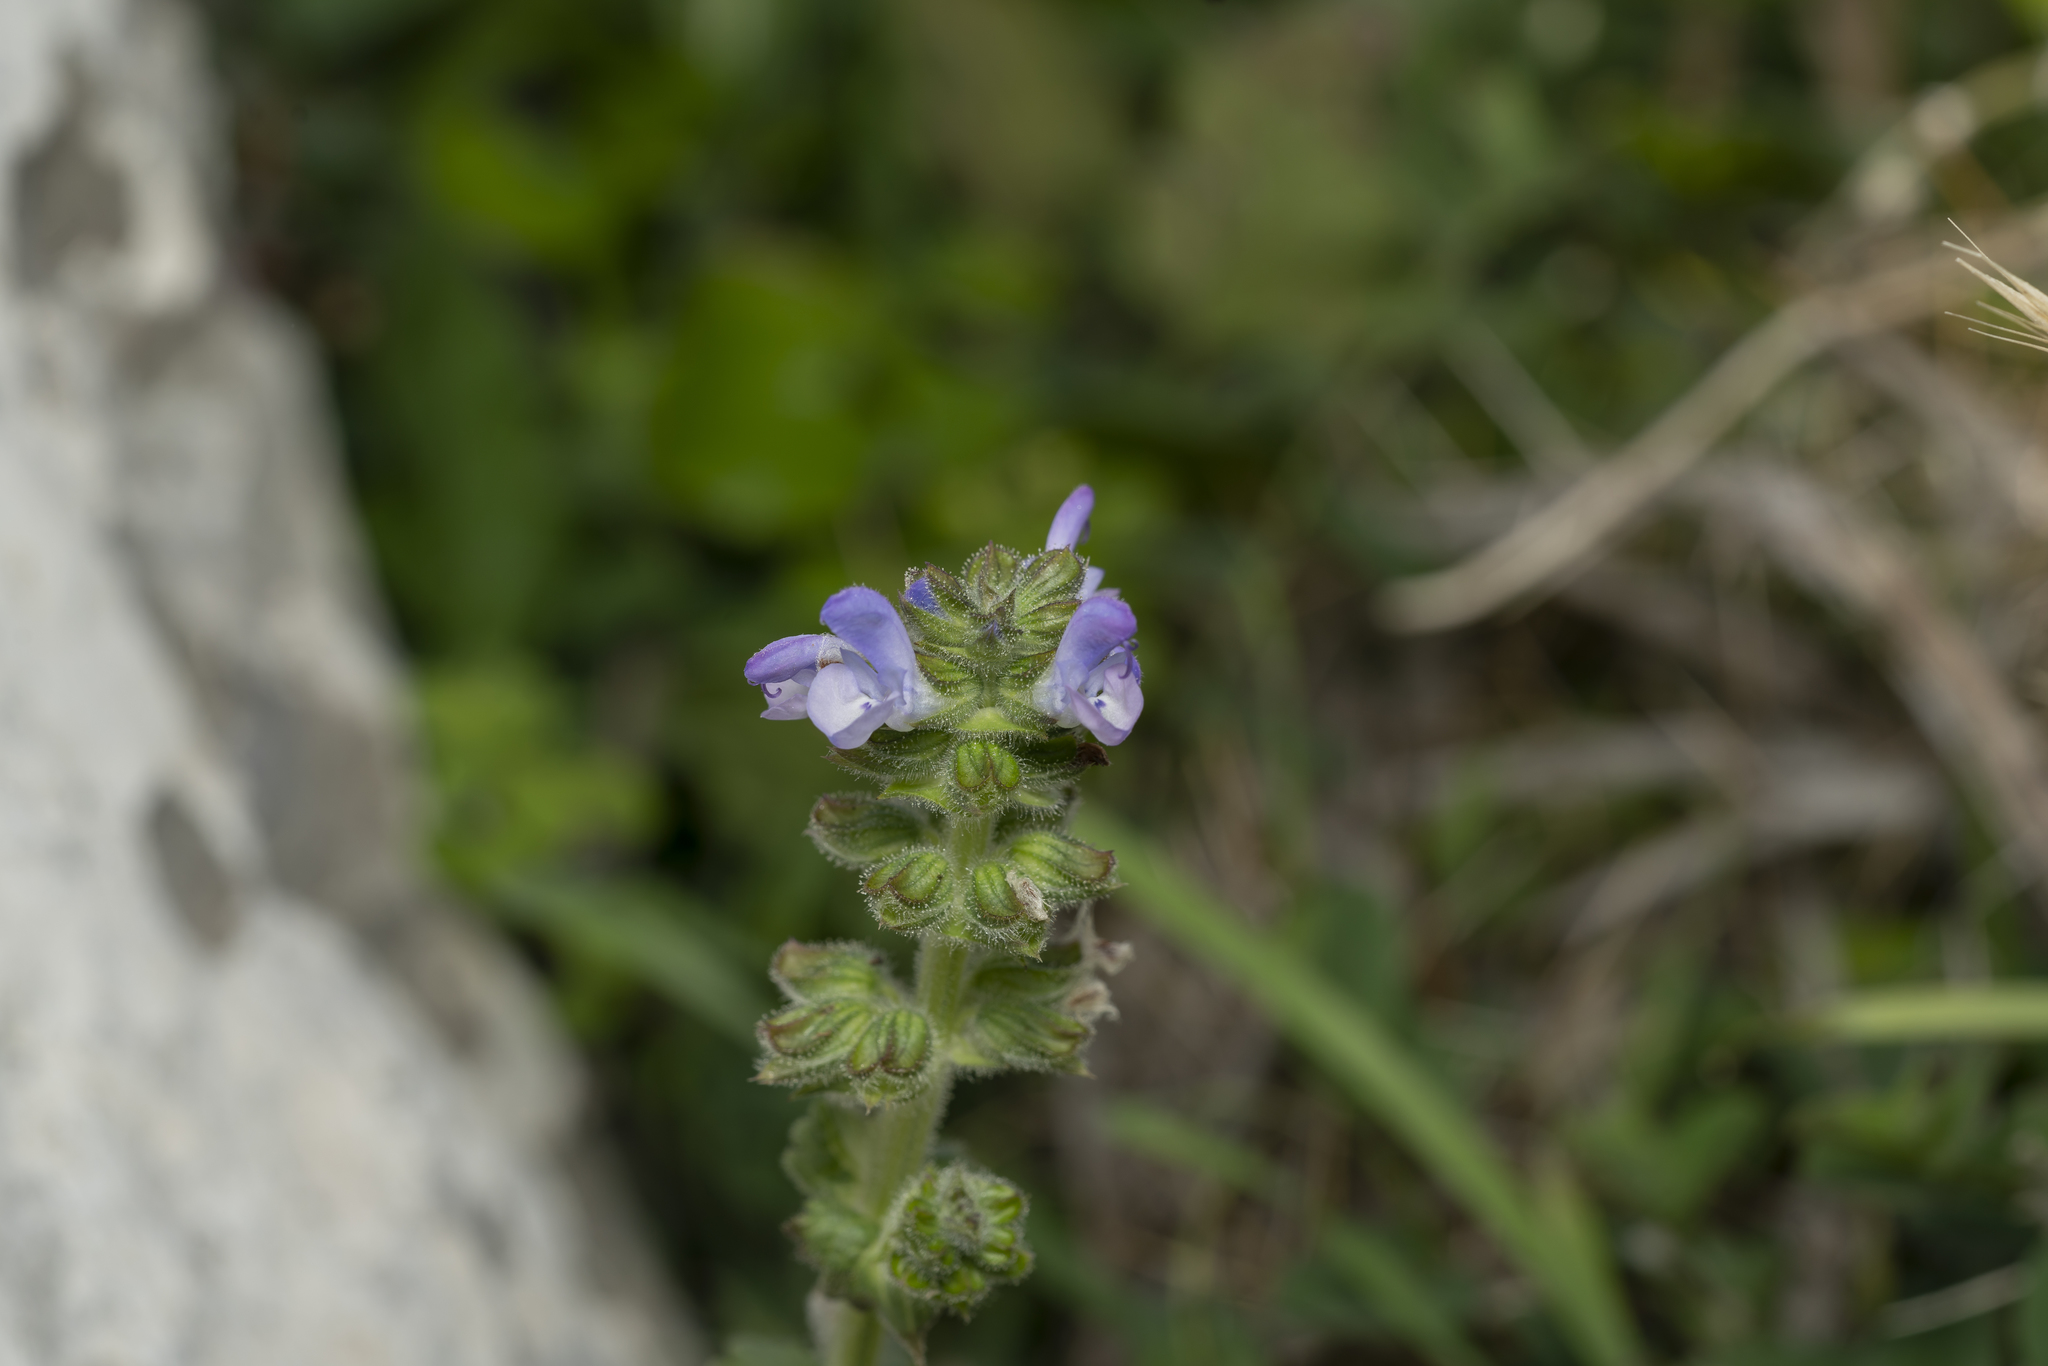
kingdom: Plantae
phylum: Tracheophyta
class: Magnoliopsida
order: Lamiales
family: Lamiaceae
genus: Salvia
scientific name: Salvia verbenaca
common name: Wild clary
